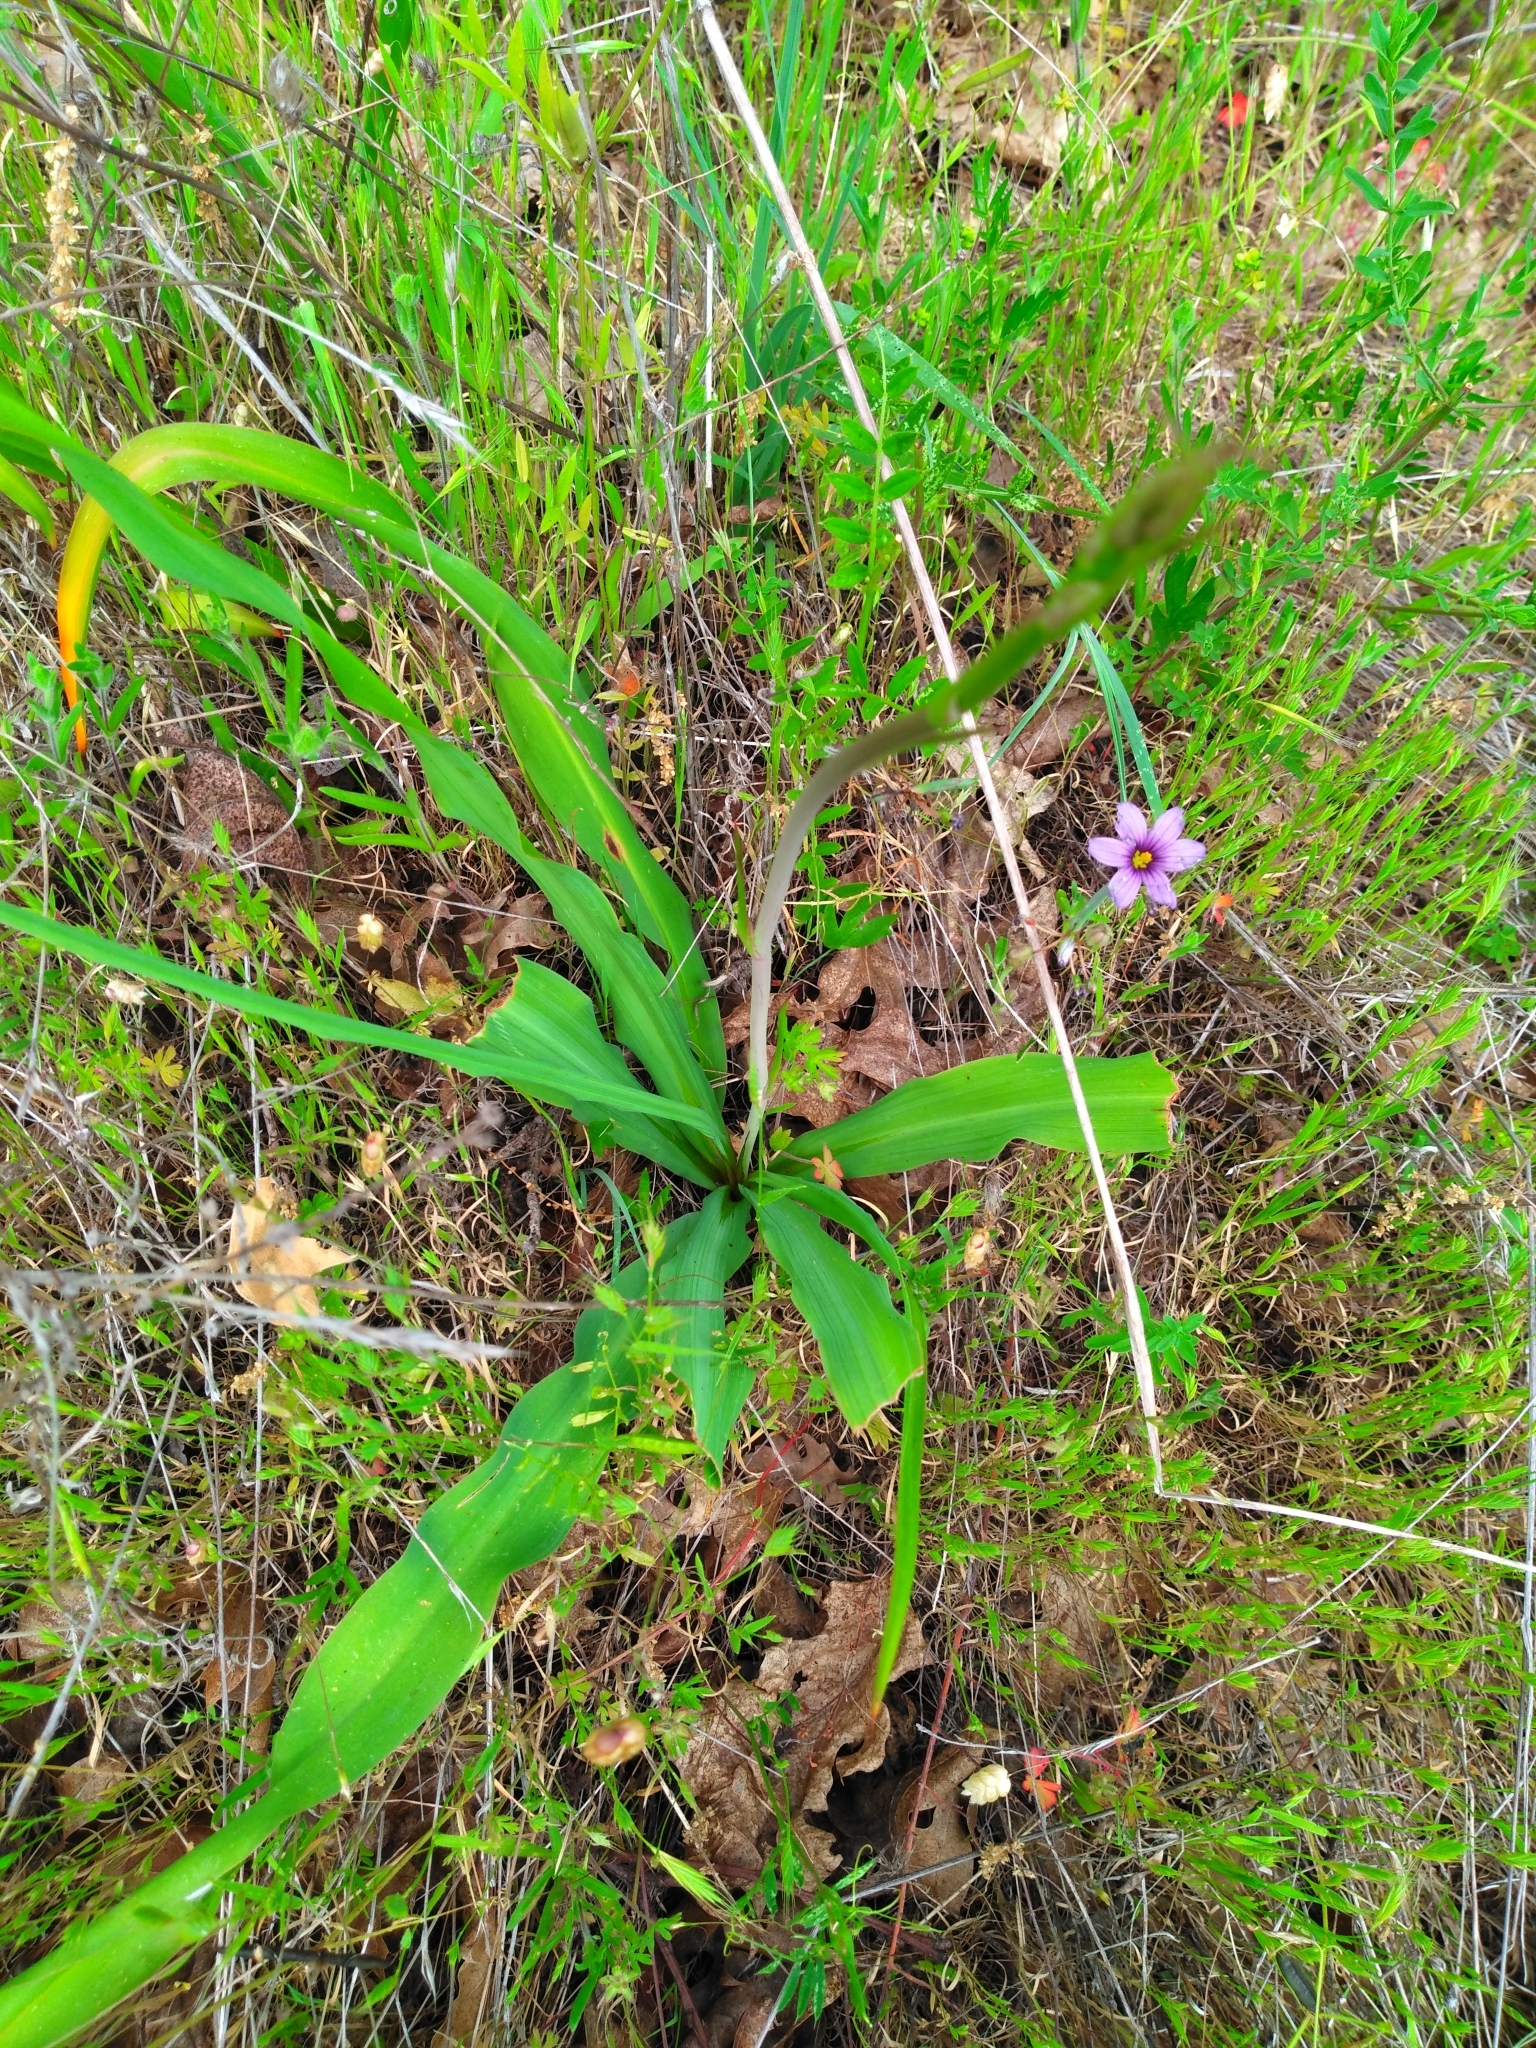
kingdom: Plantae
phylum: Tracheophyta
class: Liliopsida
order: Asparagales
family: Asparagaceae
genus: Chlorogalum
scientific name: Chlorogalum pomeridianum
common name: Amole
